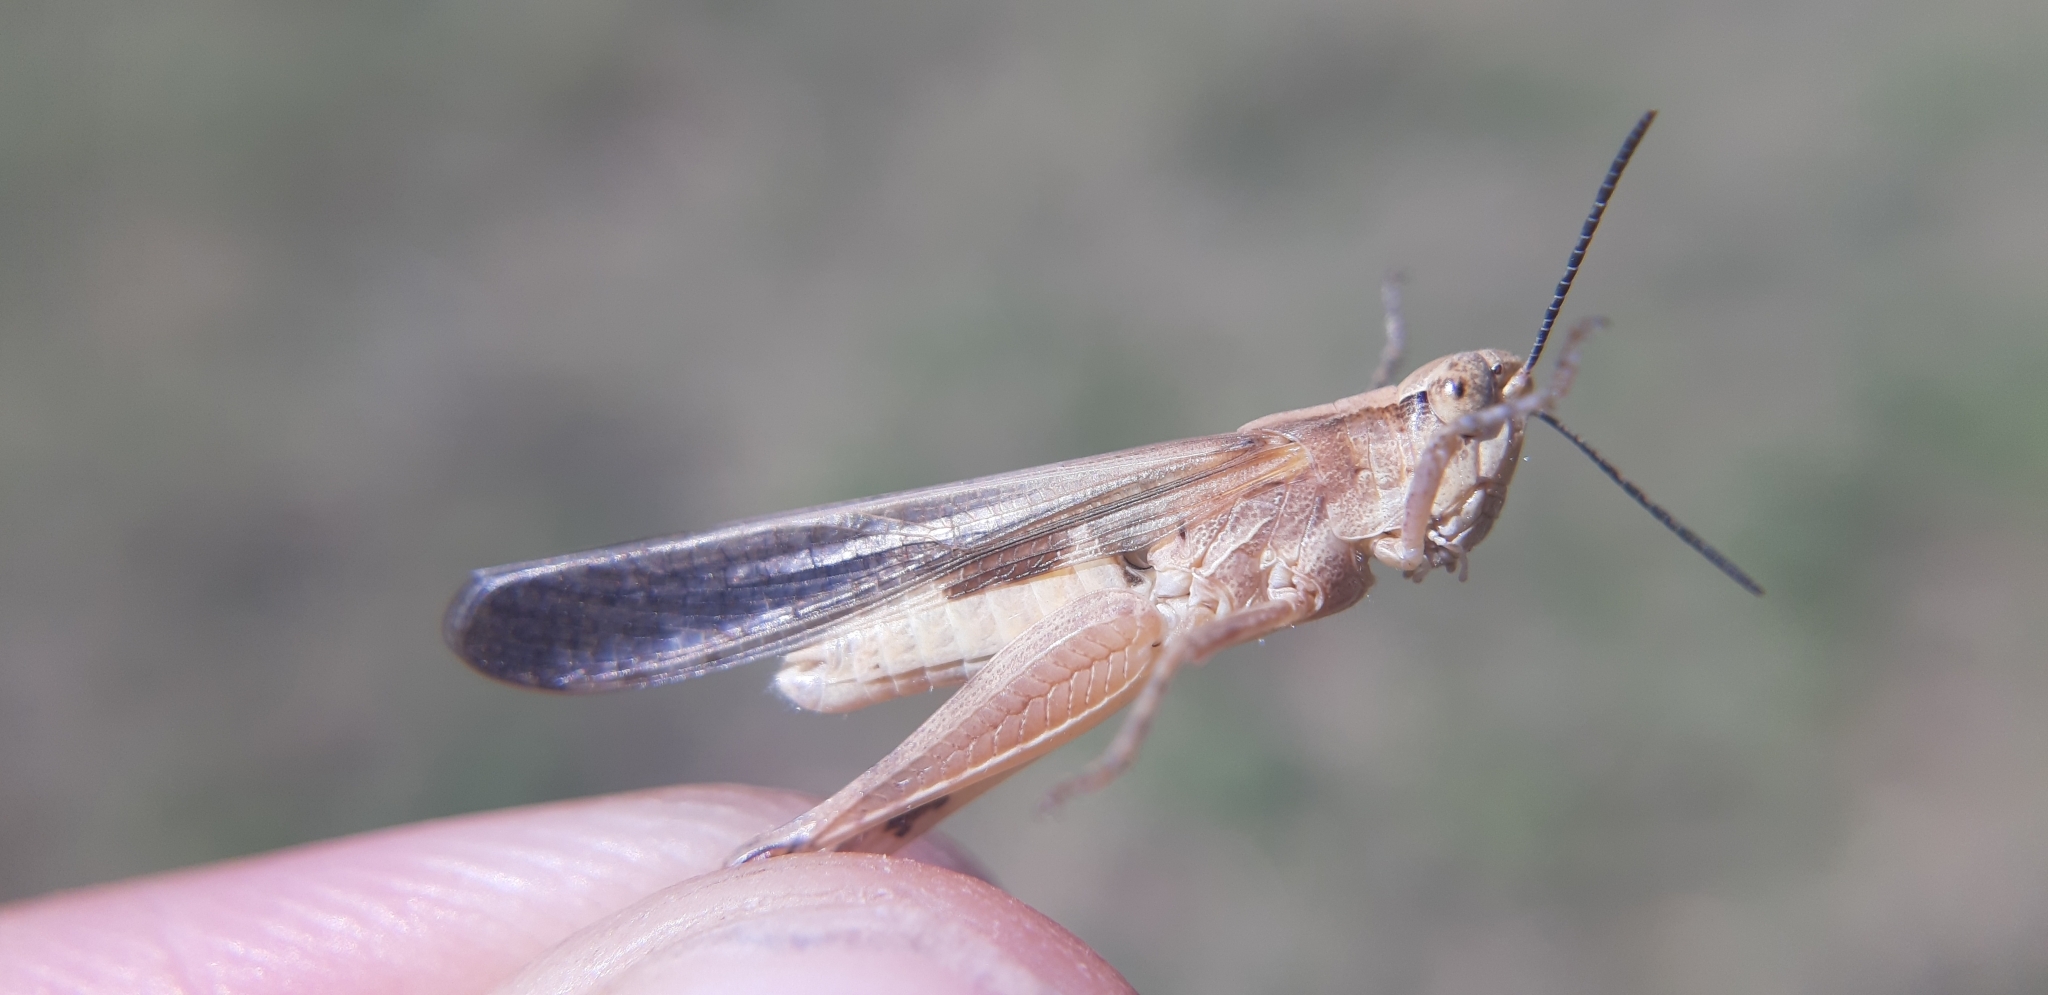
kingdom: Animalia
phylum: Arthropoda
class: Insecta
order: Orthoptera
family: Acrididae
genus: Aiolopus
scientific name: Aiolopus puissanti
